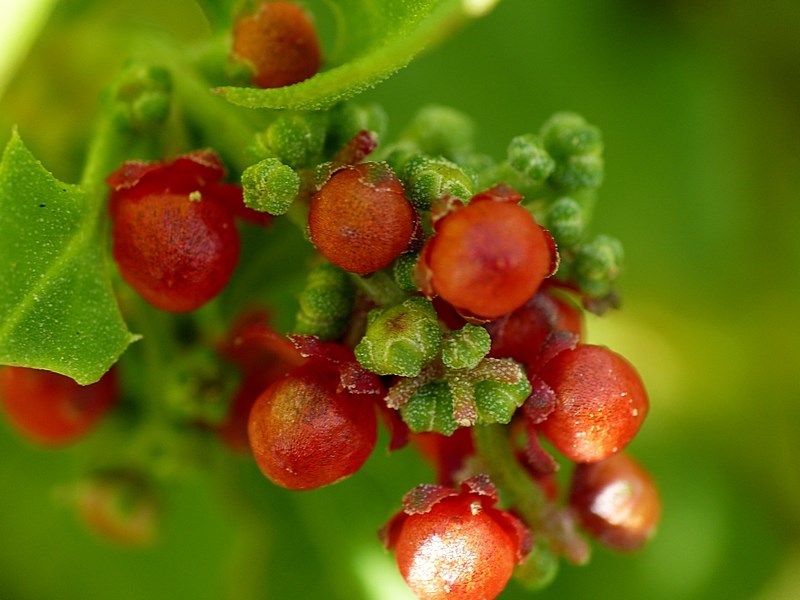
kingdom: Plantae
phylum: Tracheophyta
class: Magnoliopsida
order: Caryophyllales
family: Amaranthaceae
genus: Chenopodium
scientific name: Chenopodium nutans
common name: Climbing-saltbush
